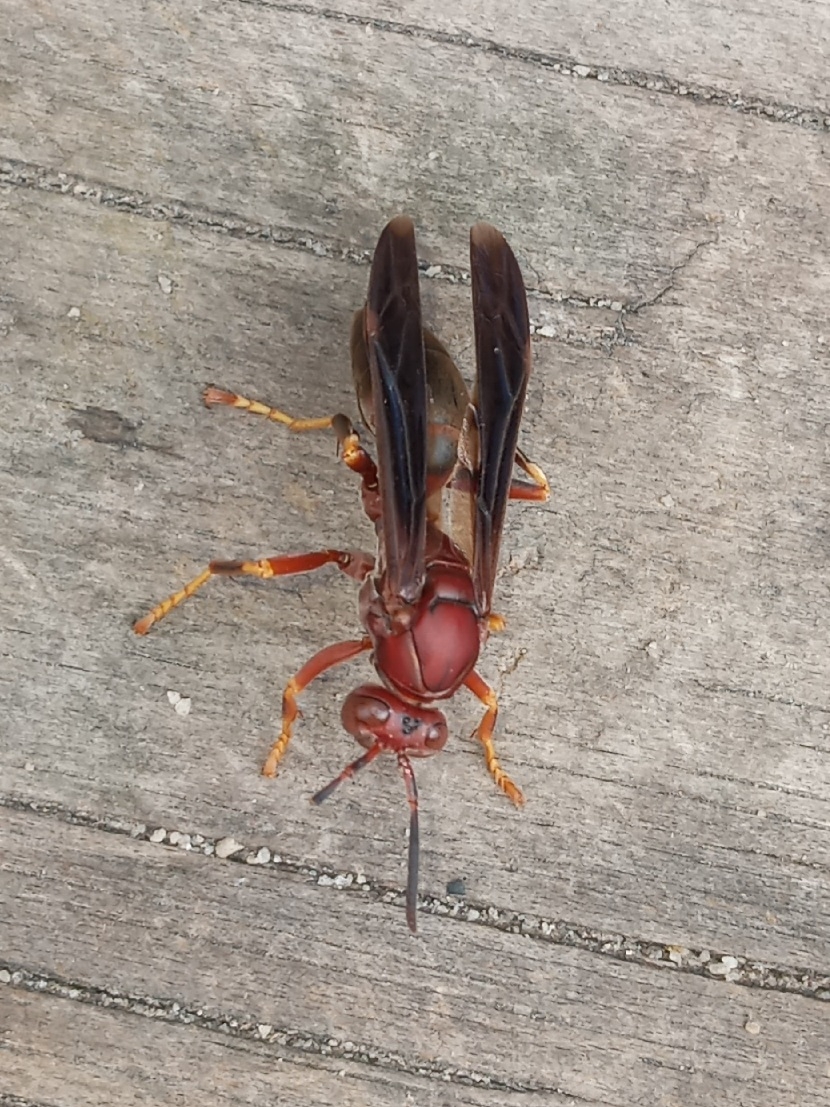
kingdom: Animalia
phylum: Arthropoda
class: Insecta
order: Hymenoptera
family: Eumenidae
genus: Polistes
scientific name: Polistes metricus
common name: Metric paper wasp
